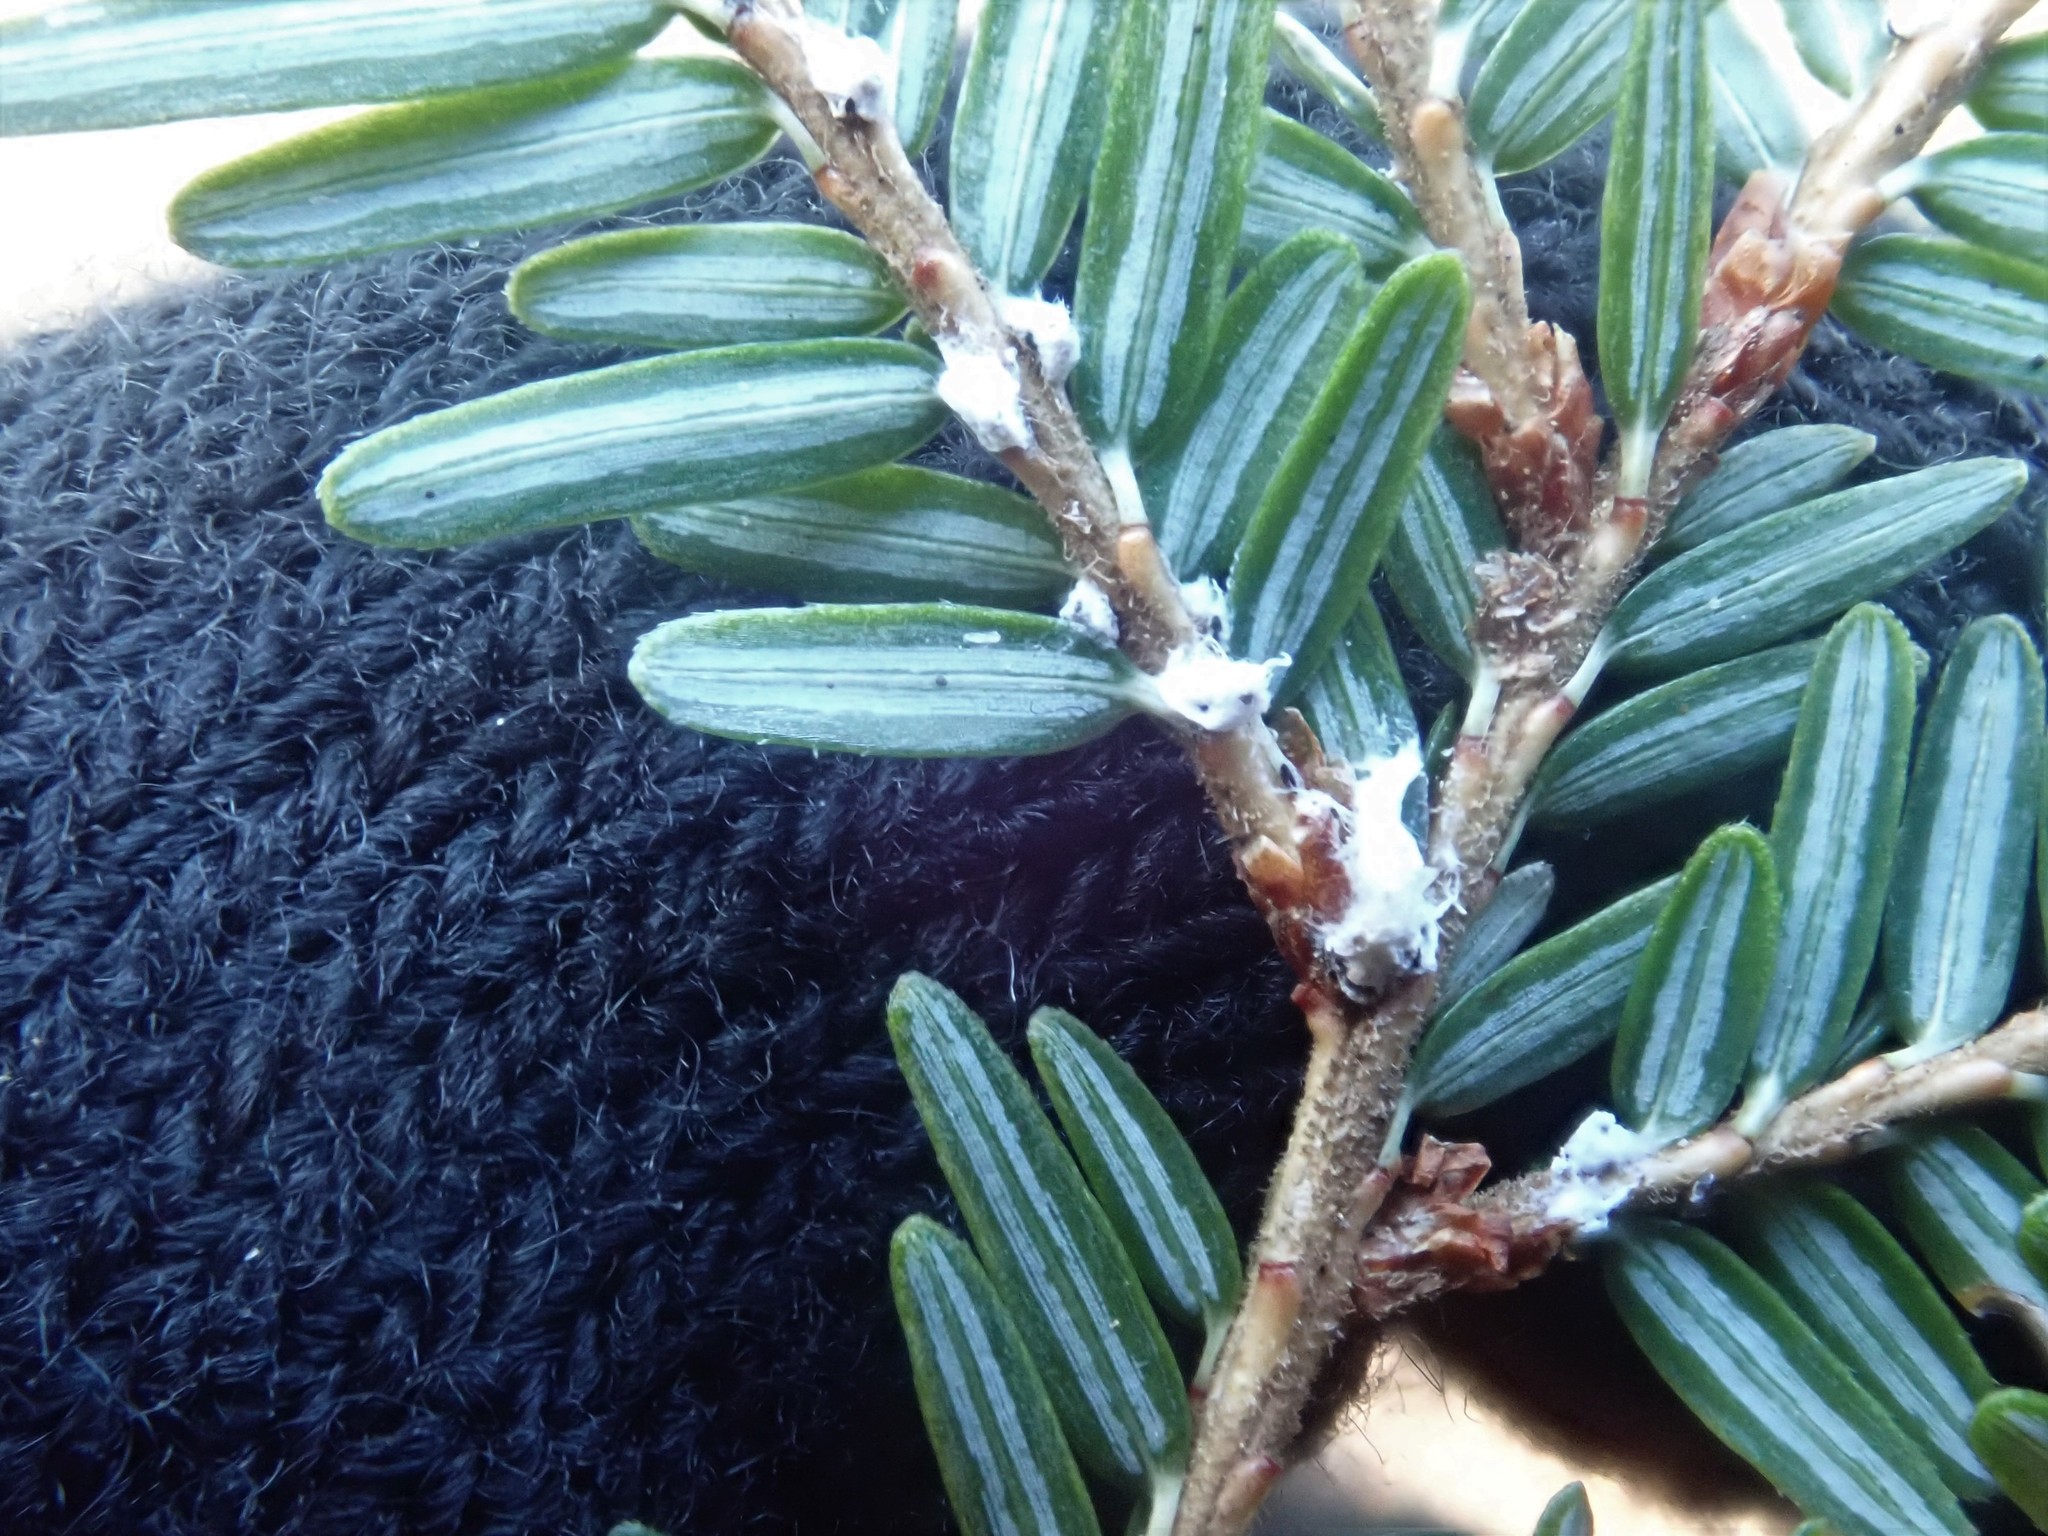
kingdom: Animalia
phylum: Arthropoda
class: Insecta
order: Hemiptera
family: Adelgidae
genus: Adelges
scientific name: Adelges tsugae
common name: Hemlock woolly adelgid
